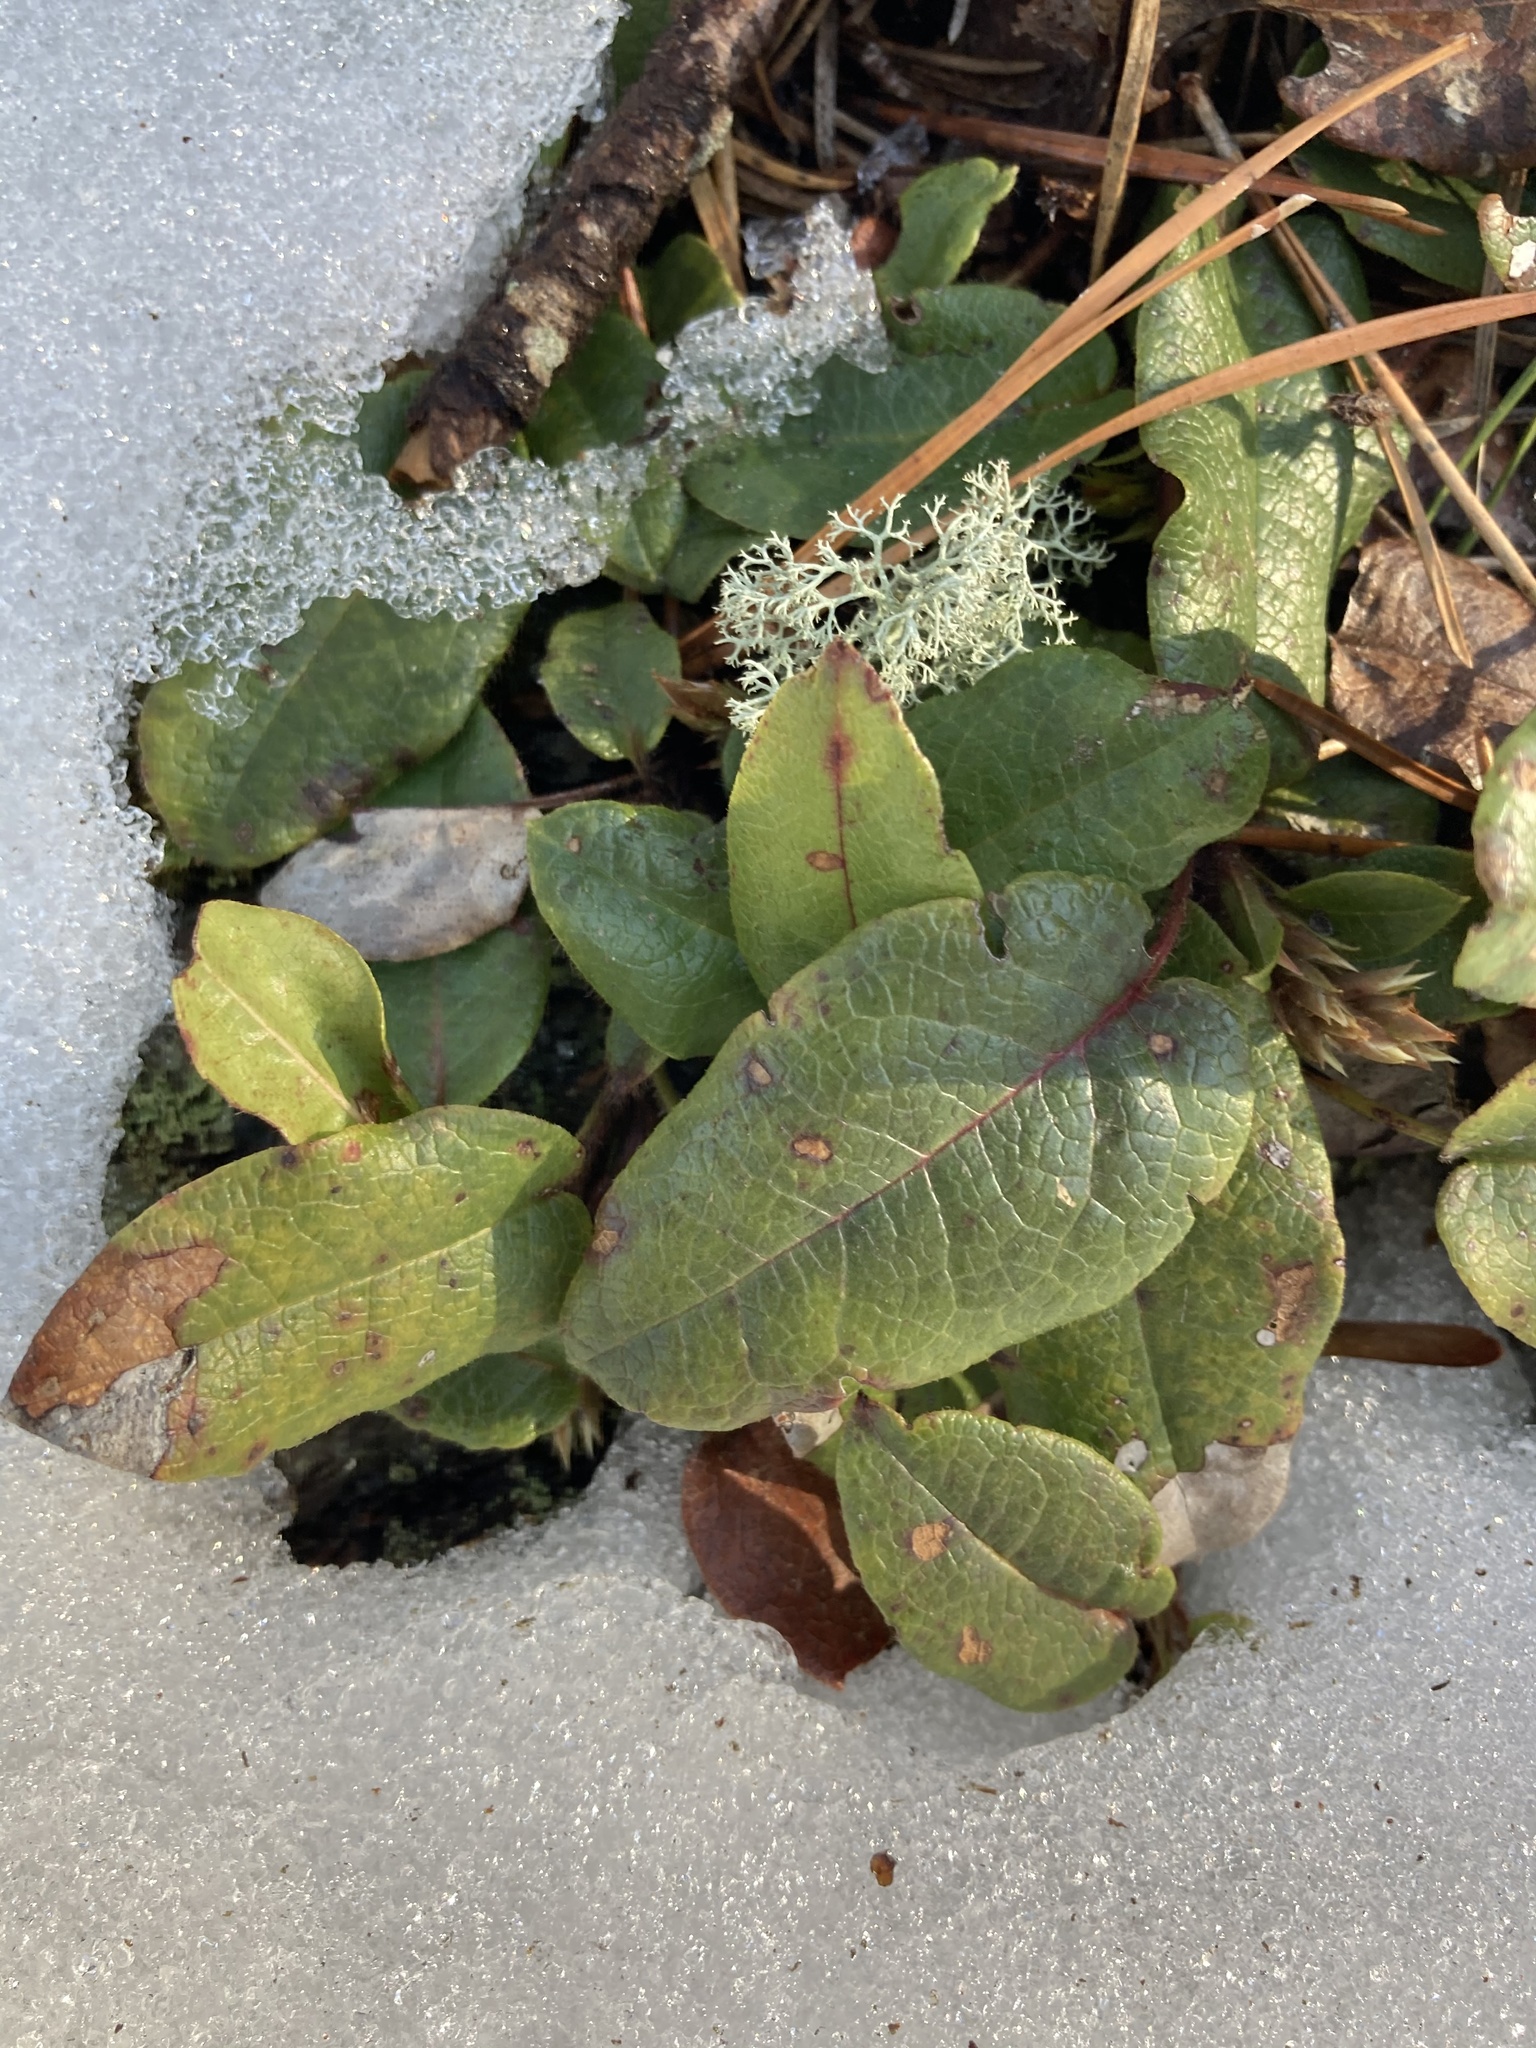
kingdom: Plantae
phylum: Tracheophyta
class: Magnoliopsida
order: Ericales
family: Ericaceae
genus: Epigaea
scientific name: Epigaea repens
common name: Gravelroot
